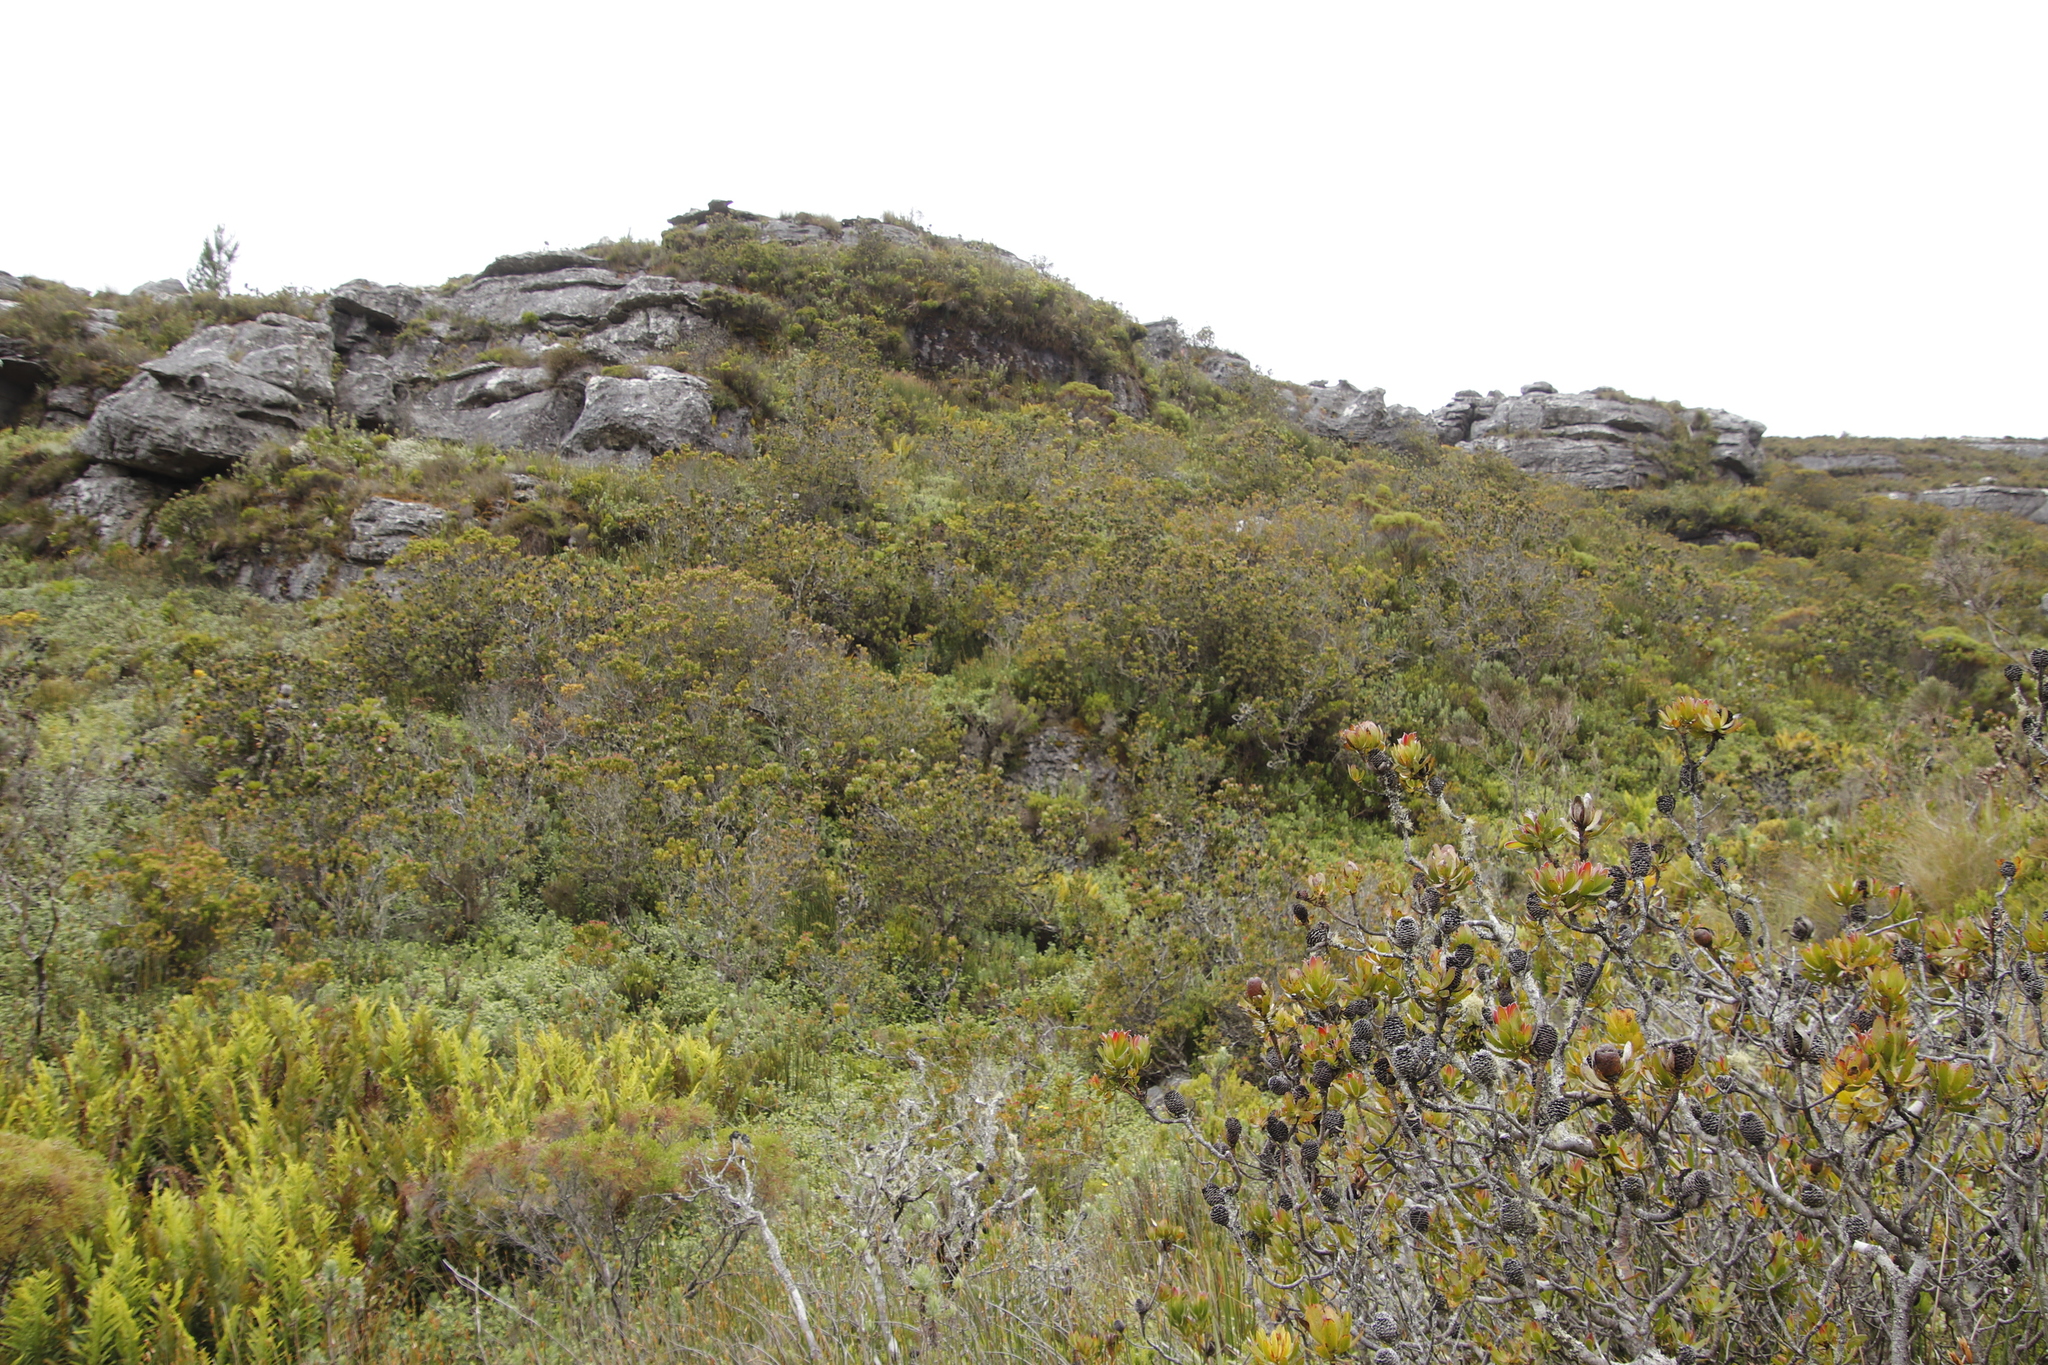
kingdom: Plantae
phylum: Tracheophyta
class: Magnoliopsida
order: Proteales
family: Proteaceae
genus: Leucadendron
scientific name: Leucadendron strobilinum
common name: Mountain rose
